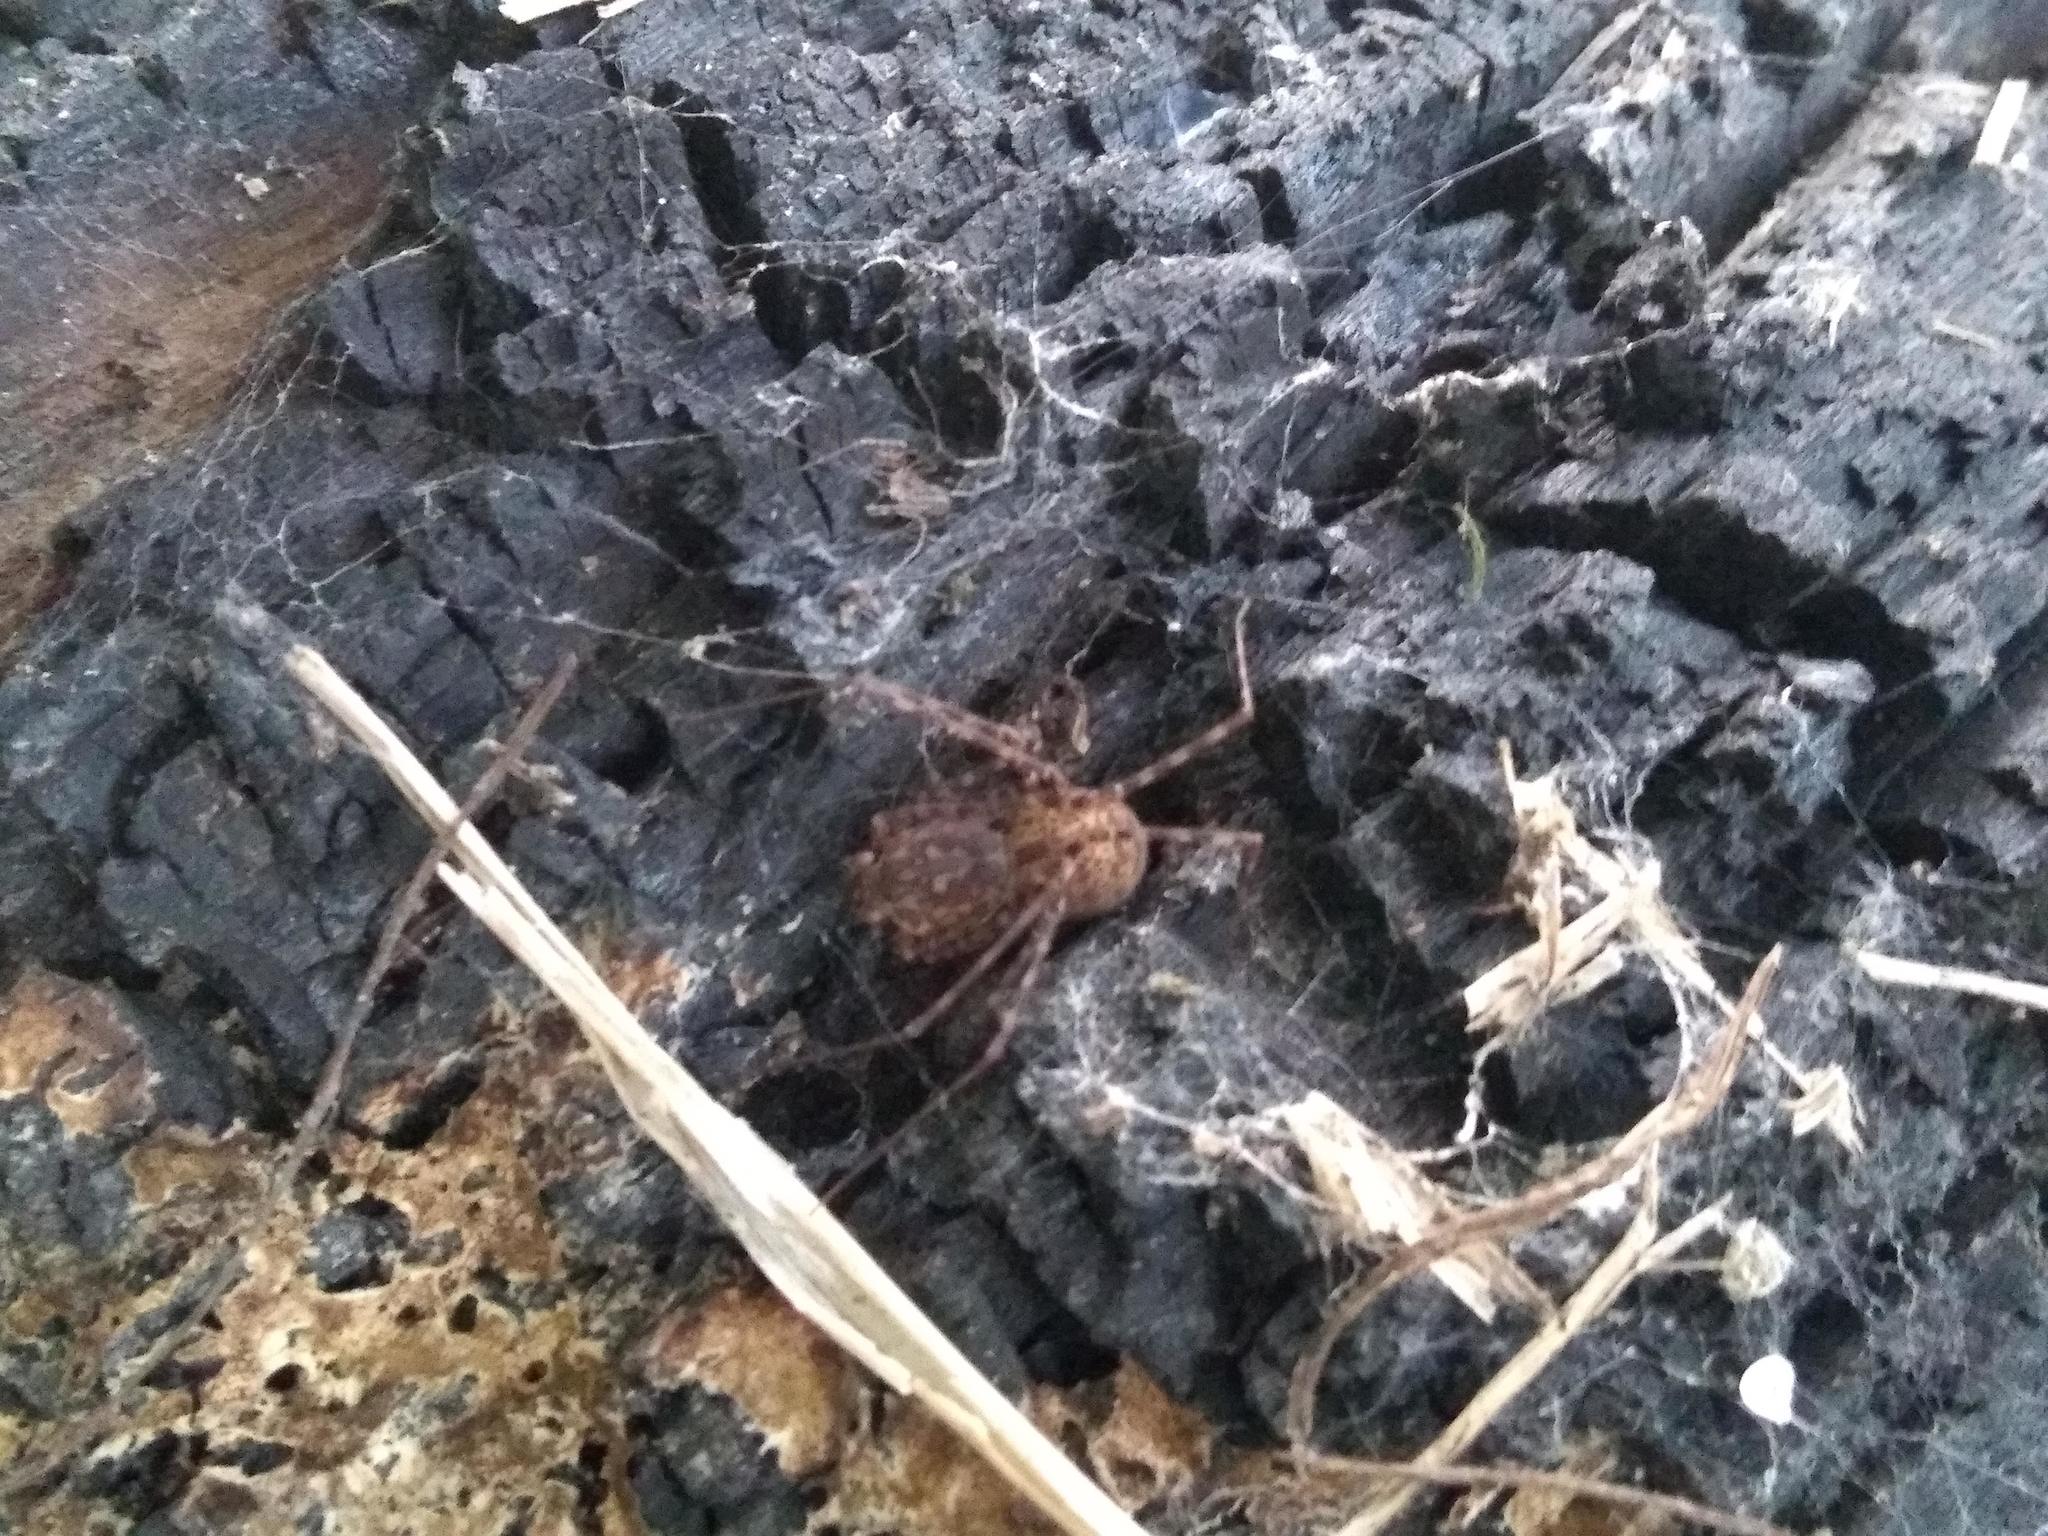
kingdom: Animalia
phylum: Arthropoda
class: Arachnida
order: Araneae
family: Scytodidae
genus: Scytodes
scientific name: Scytodes globula
